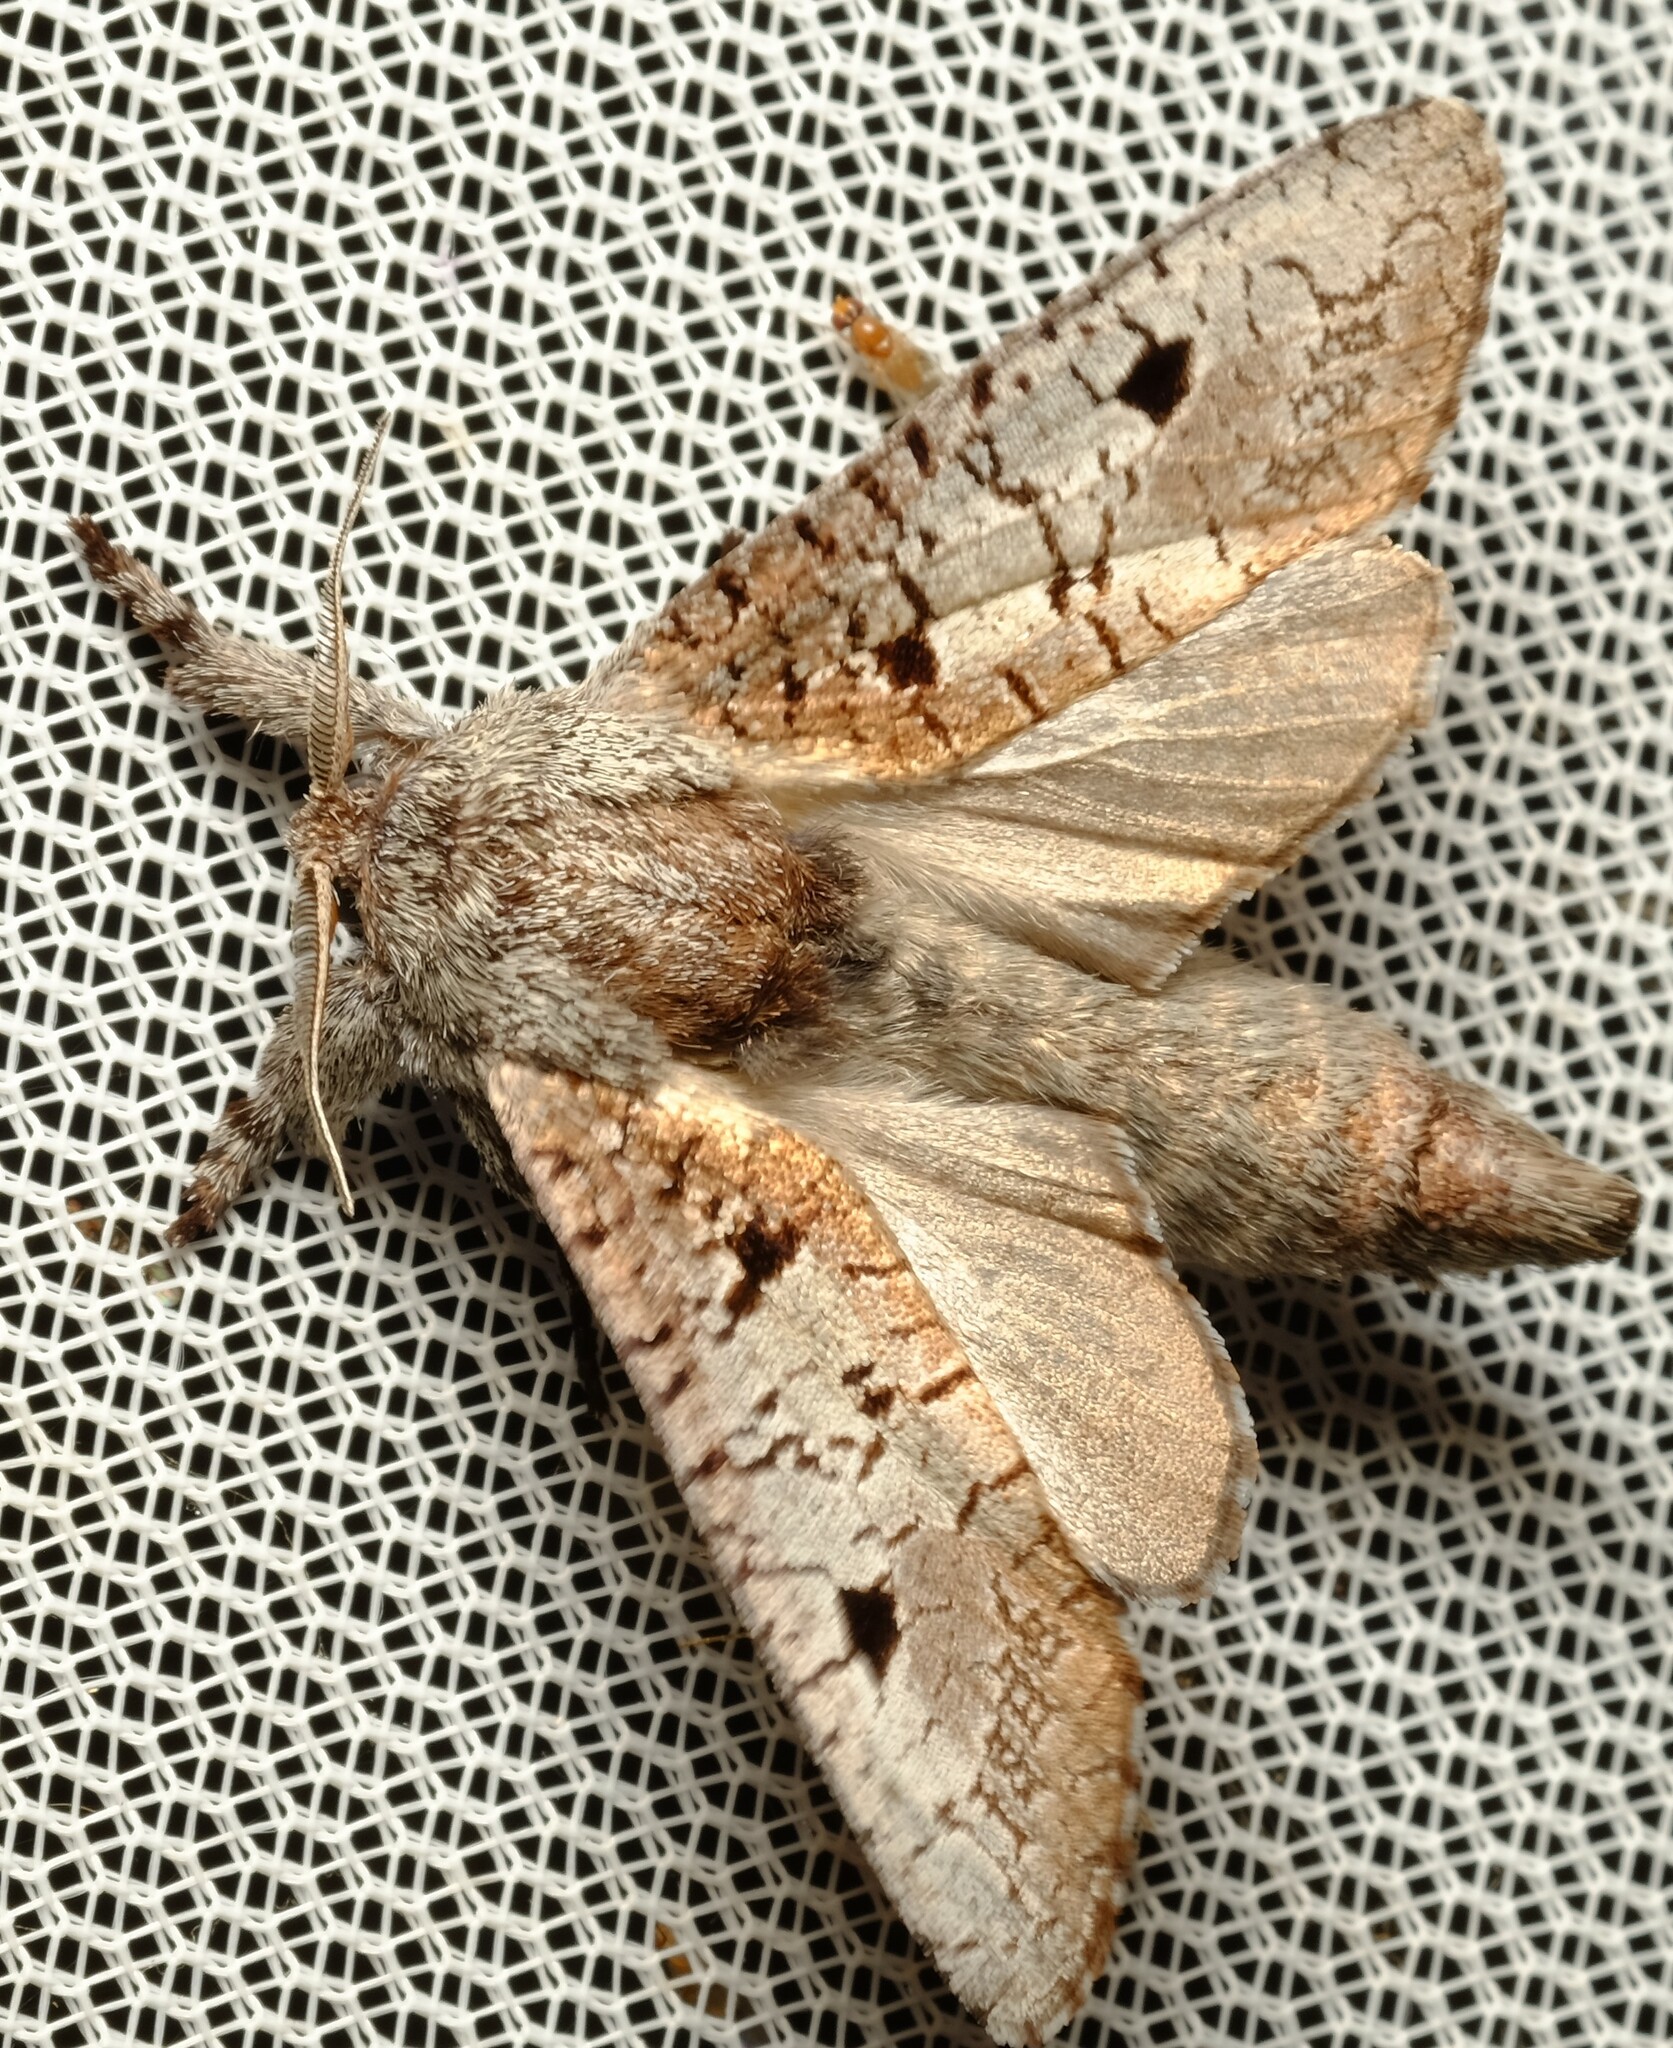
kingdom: Animalia
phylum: Arthropoda
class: Insecta
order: Lepidoptera
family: Cossidae
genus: Sympycnodes
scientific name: Sympycnodes
